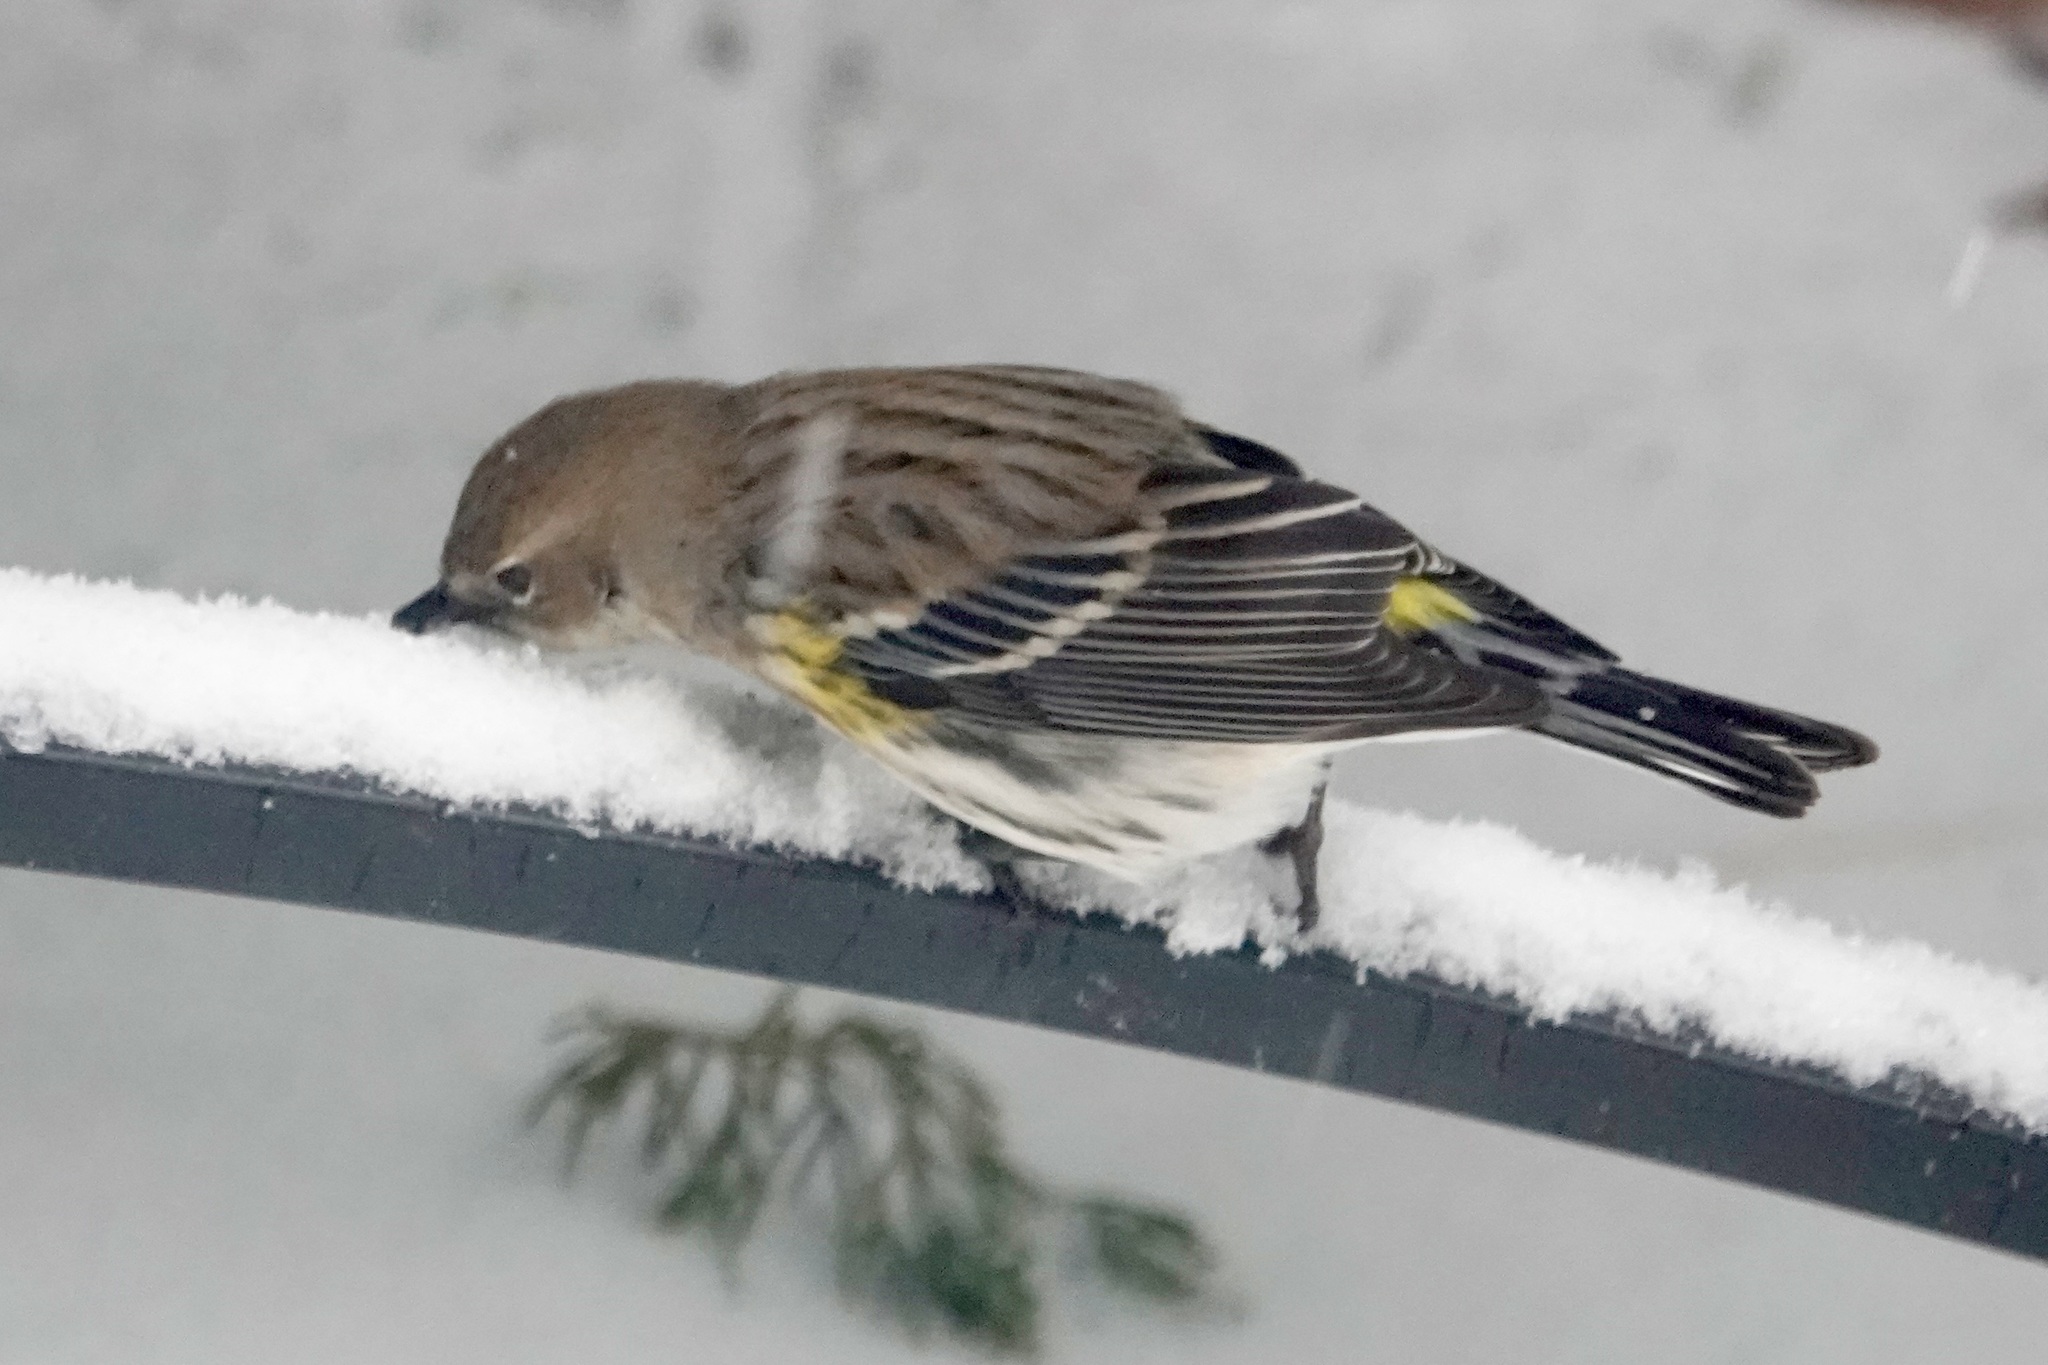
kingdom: Animalia
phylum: Chordata
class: Aves
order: Passeriformes
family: Parulidae
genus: Setophaga
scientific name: Setophaga coronata
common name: Myrtle warbler
